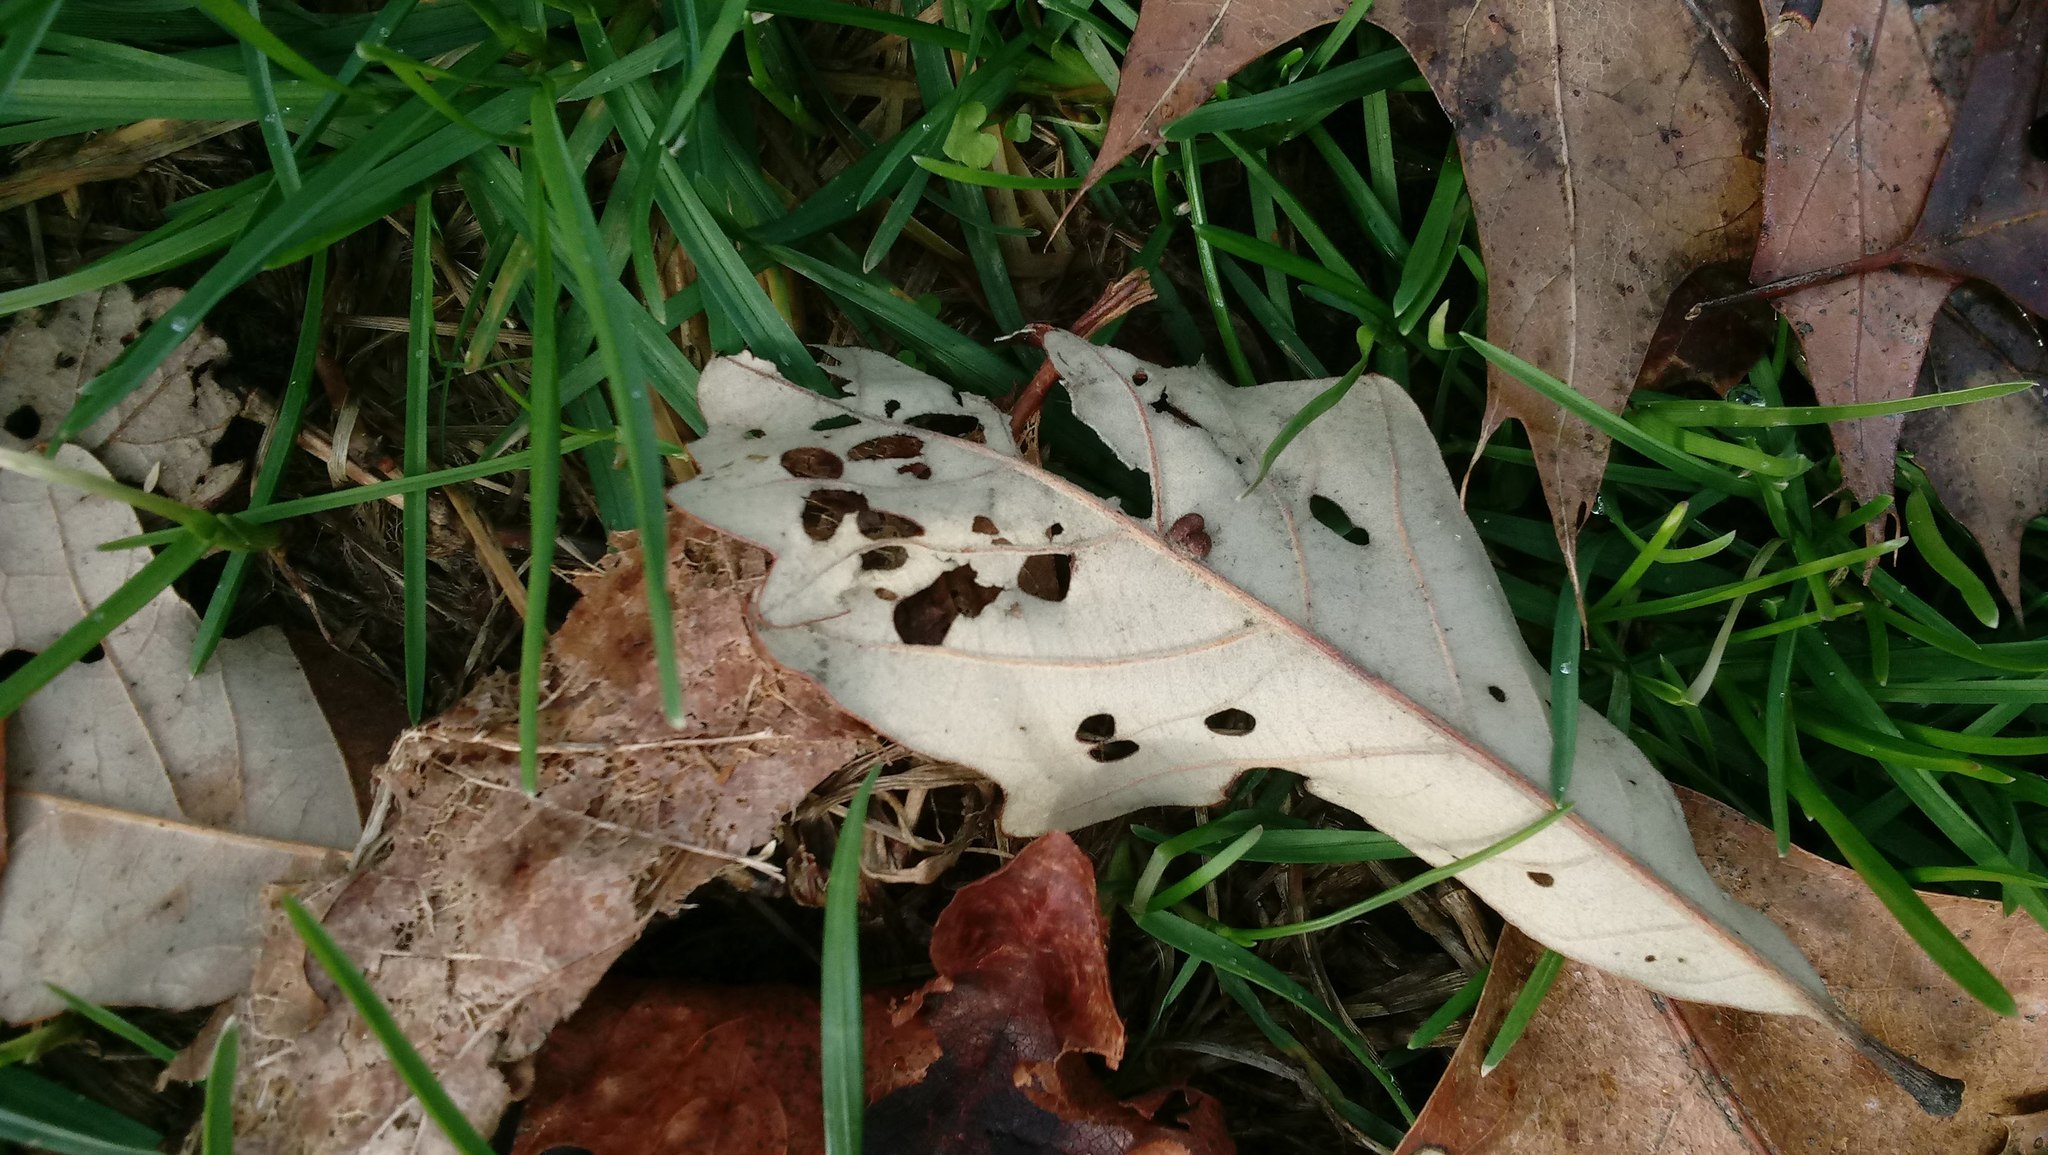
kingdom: Animalia
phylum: Arthropoda
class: Insecta
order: Hymenoptera
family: Cynipidae
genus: Andricus
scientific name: Andricus Druon ignotum
